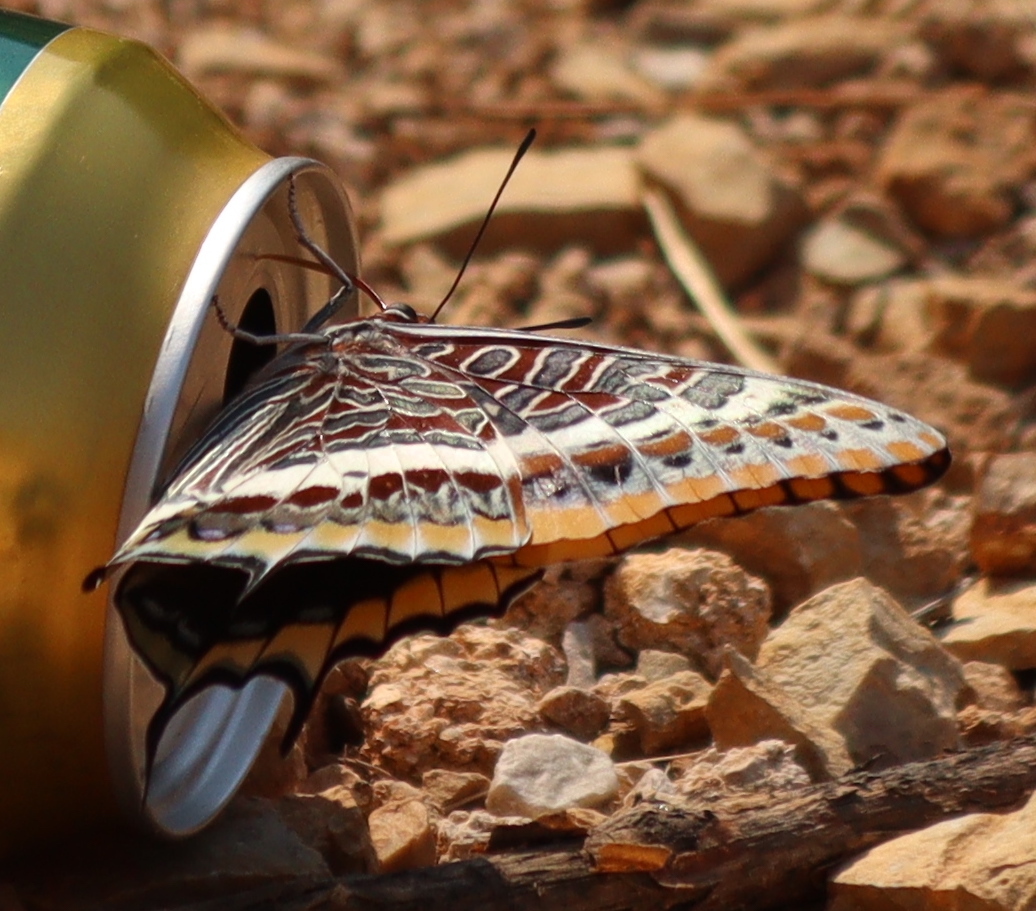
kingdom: Animalia
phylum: Arthropoda
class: Insecta
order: Lepidoptera
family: Nymphalidae
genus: Charaxes
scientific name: Charaxes jasius
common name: Two tailed pasha
